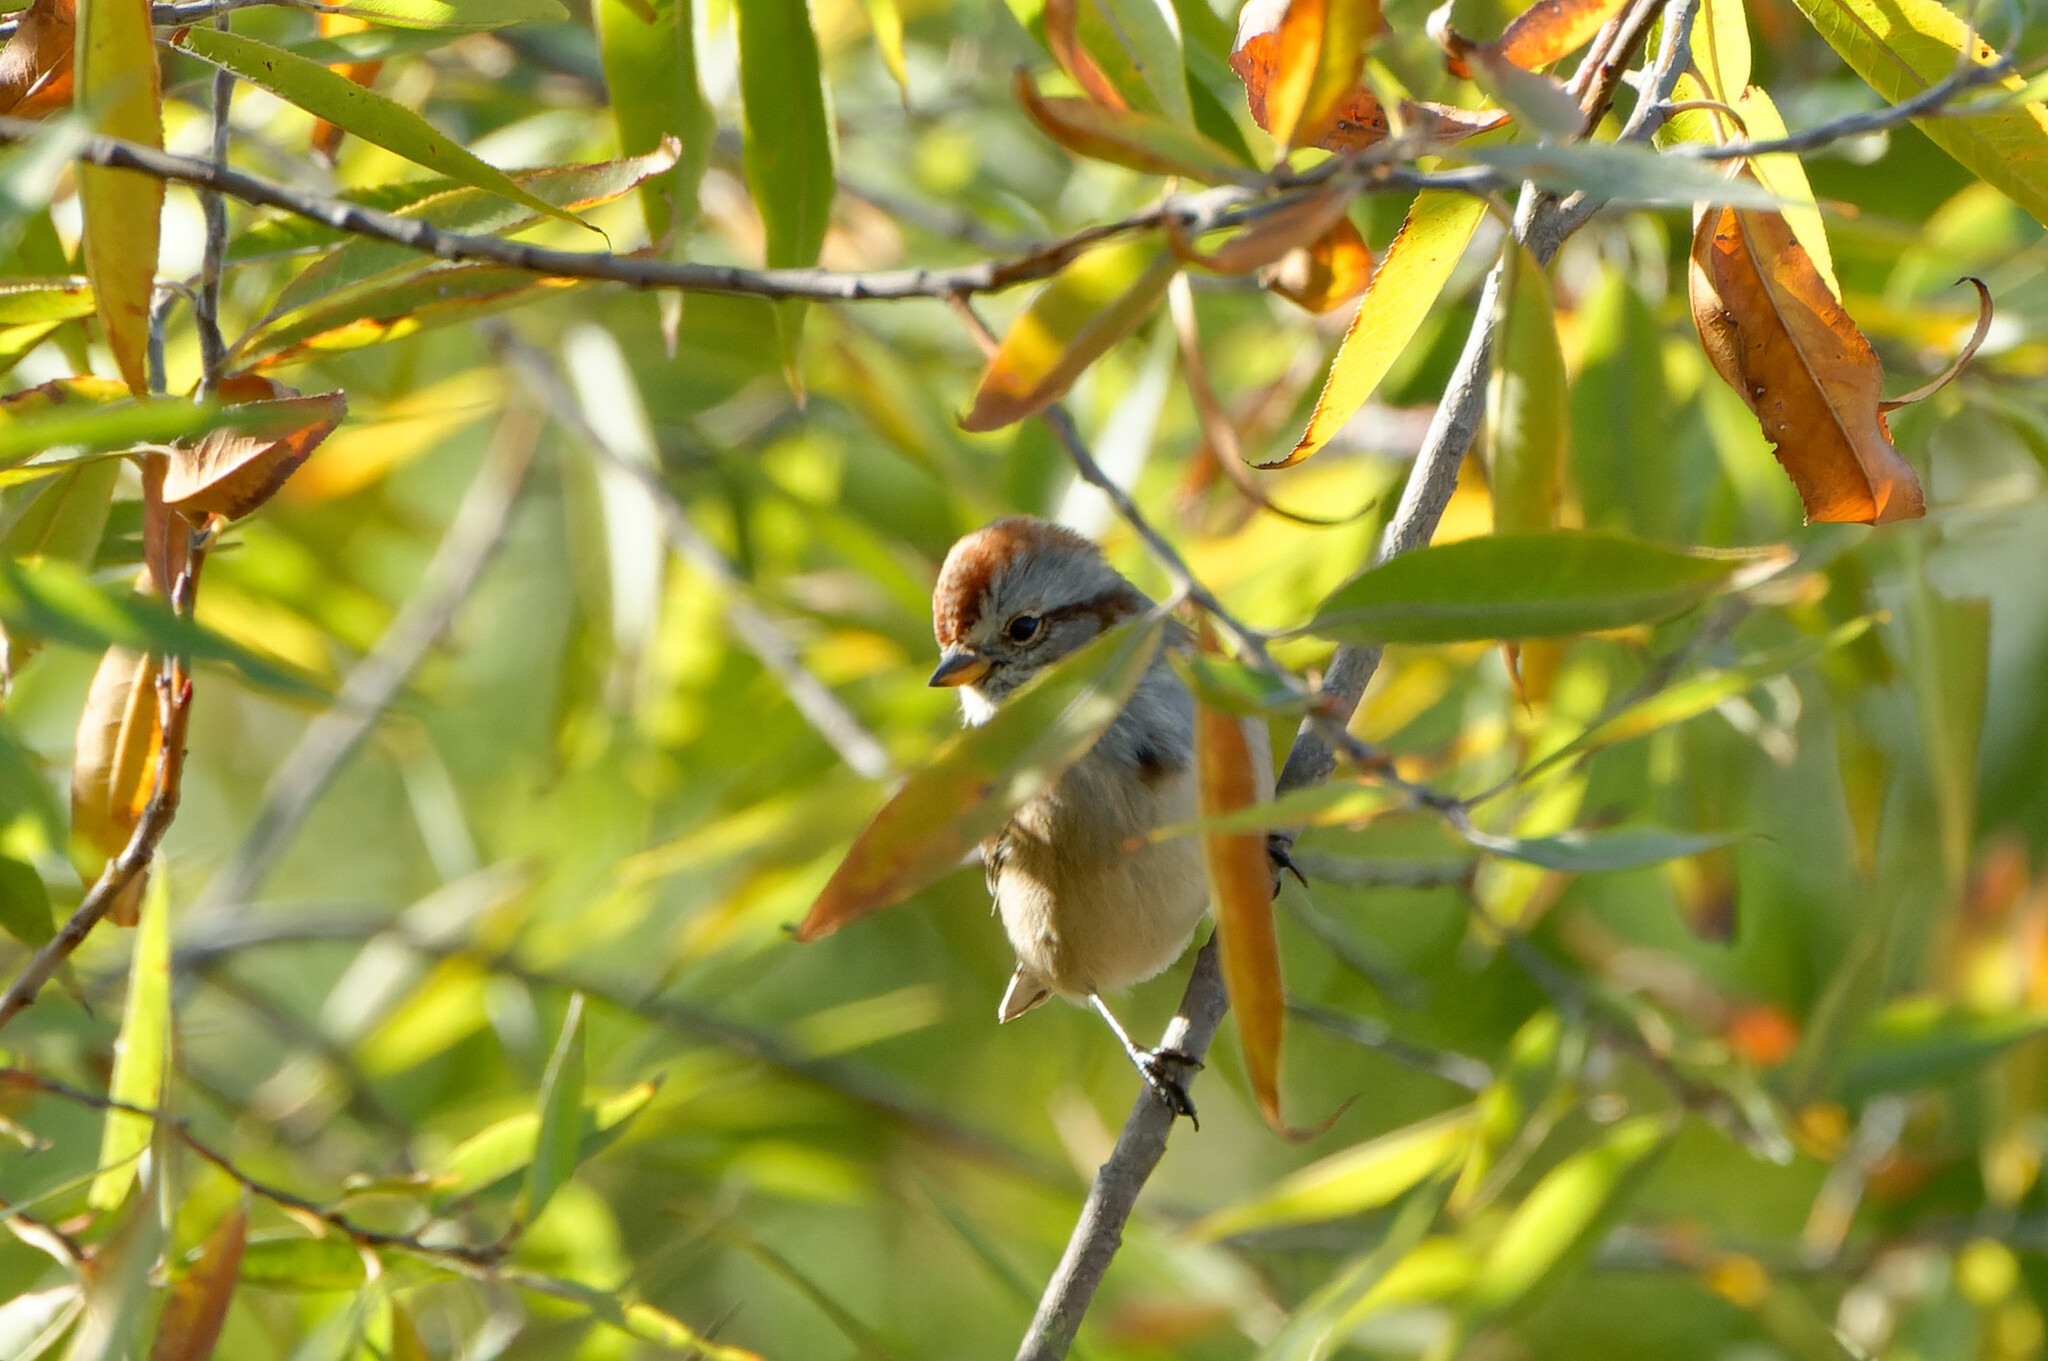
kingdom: Animalia
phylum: Chordata
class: Aves
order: Passeriformes
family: Passerellidae
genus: Spizelloides
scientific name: Spizelloides arborea
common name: American tree sparrow
